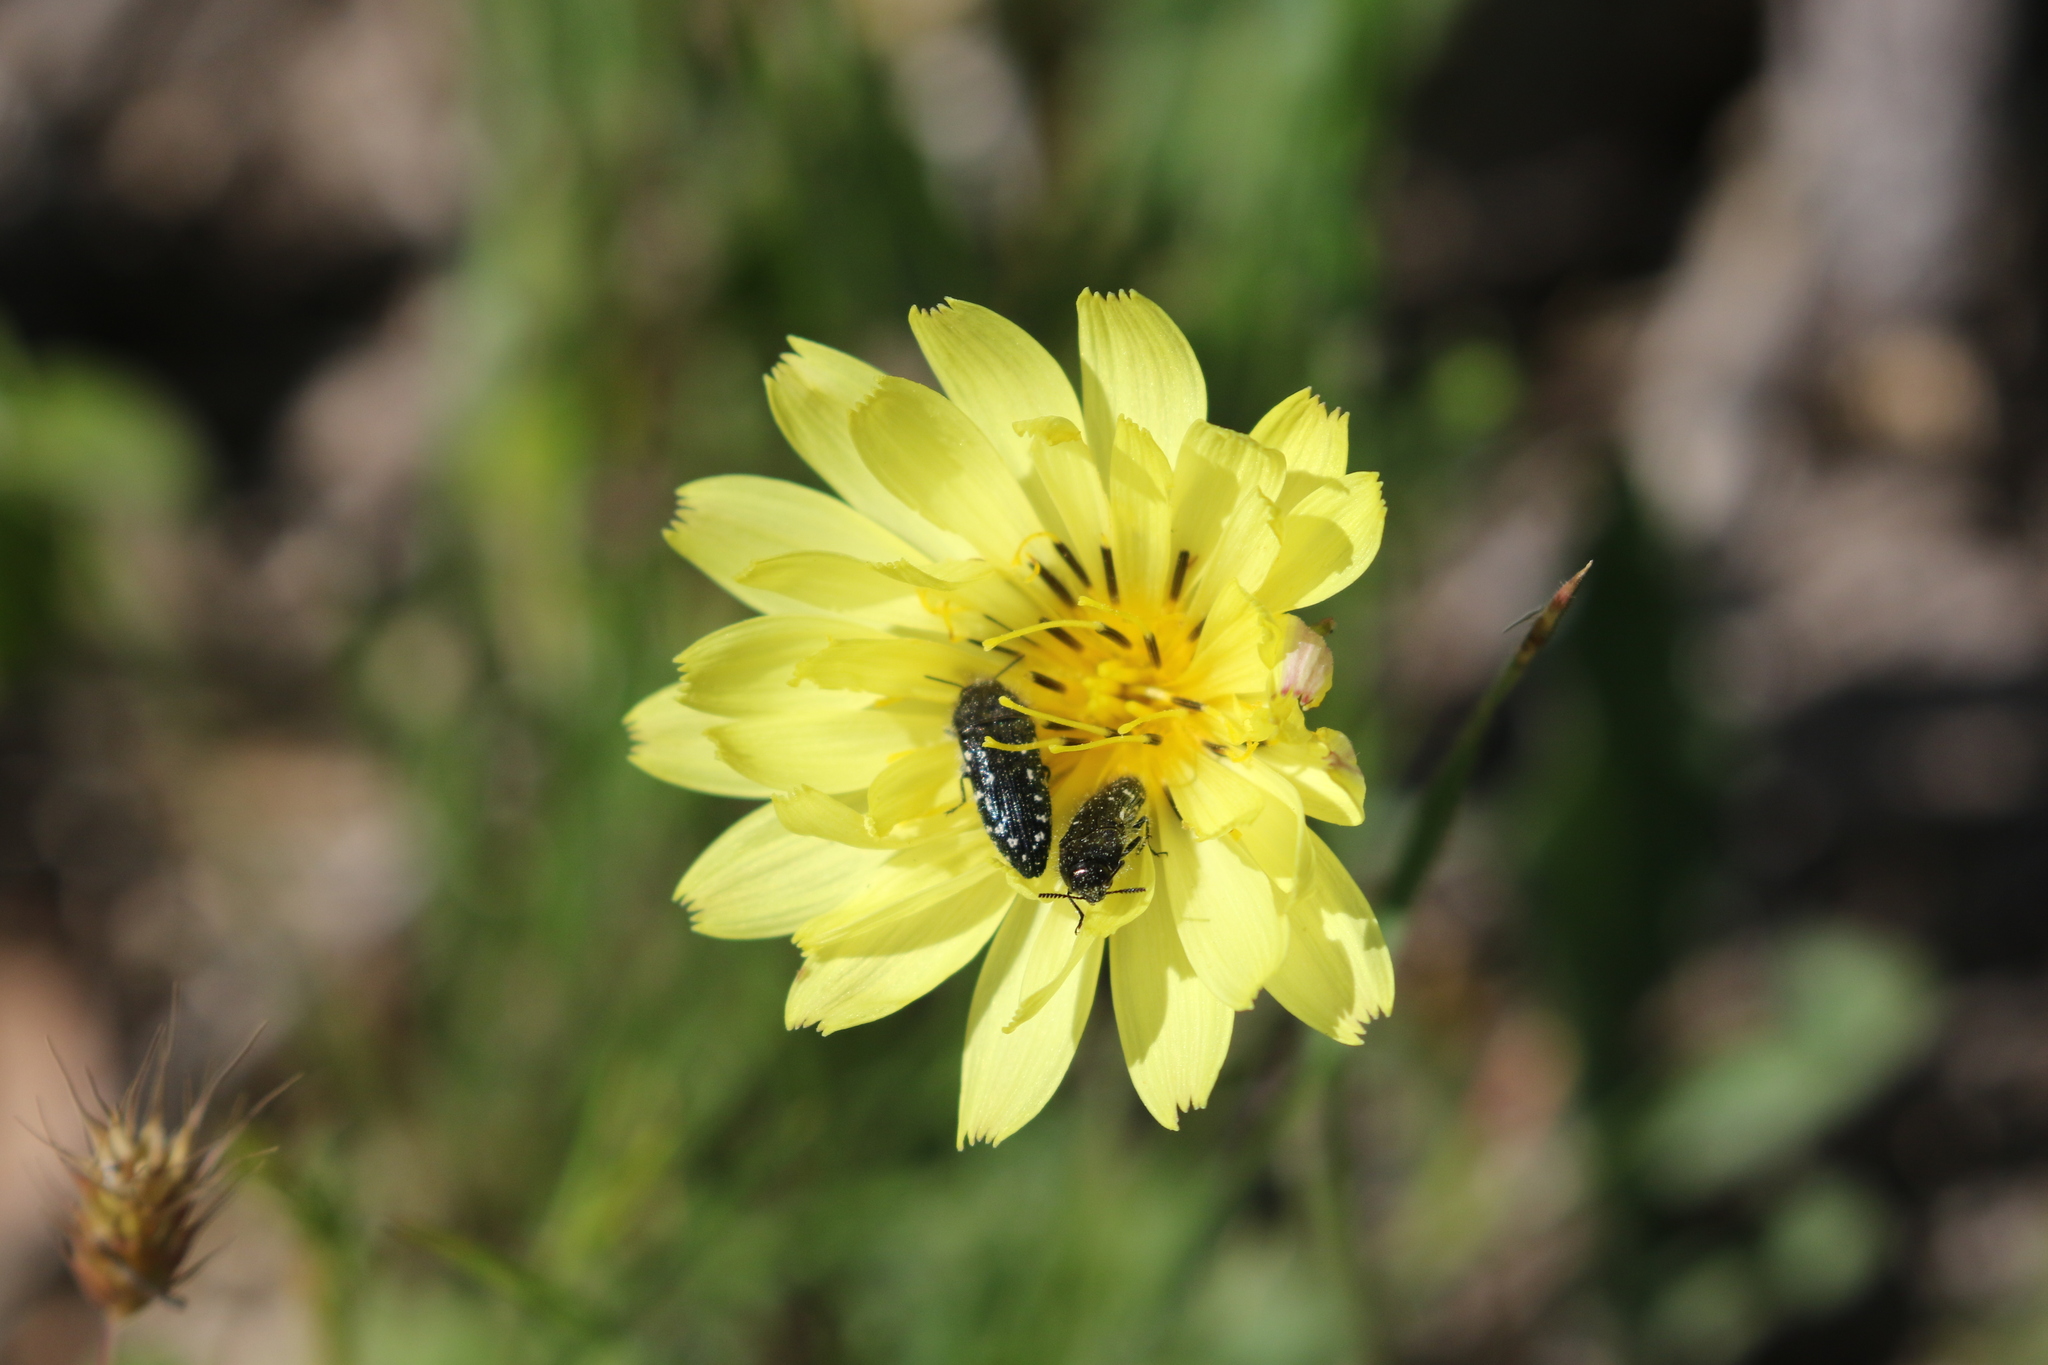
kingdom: Animalia
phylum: Arthropoda
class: Insecta
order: Coleoptera
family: Buprestidae
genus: Acmaeodera
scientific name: Acmaeodera ornatoides
